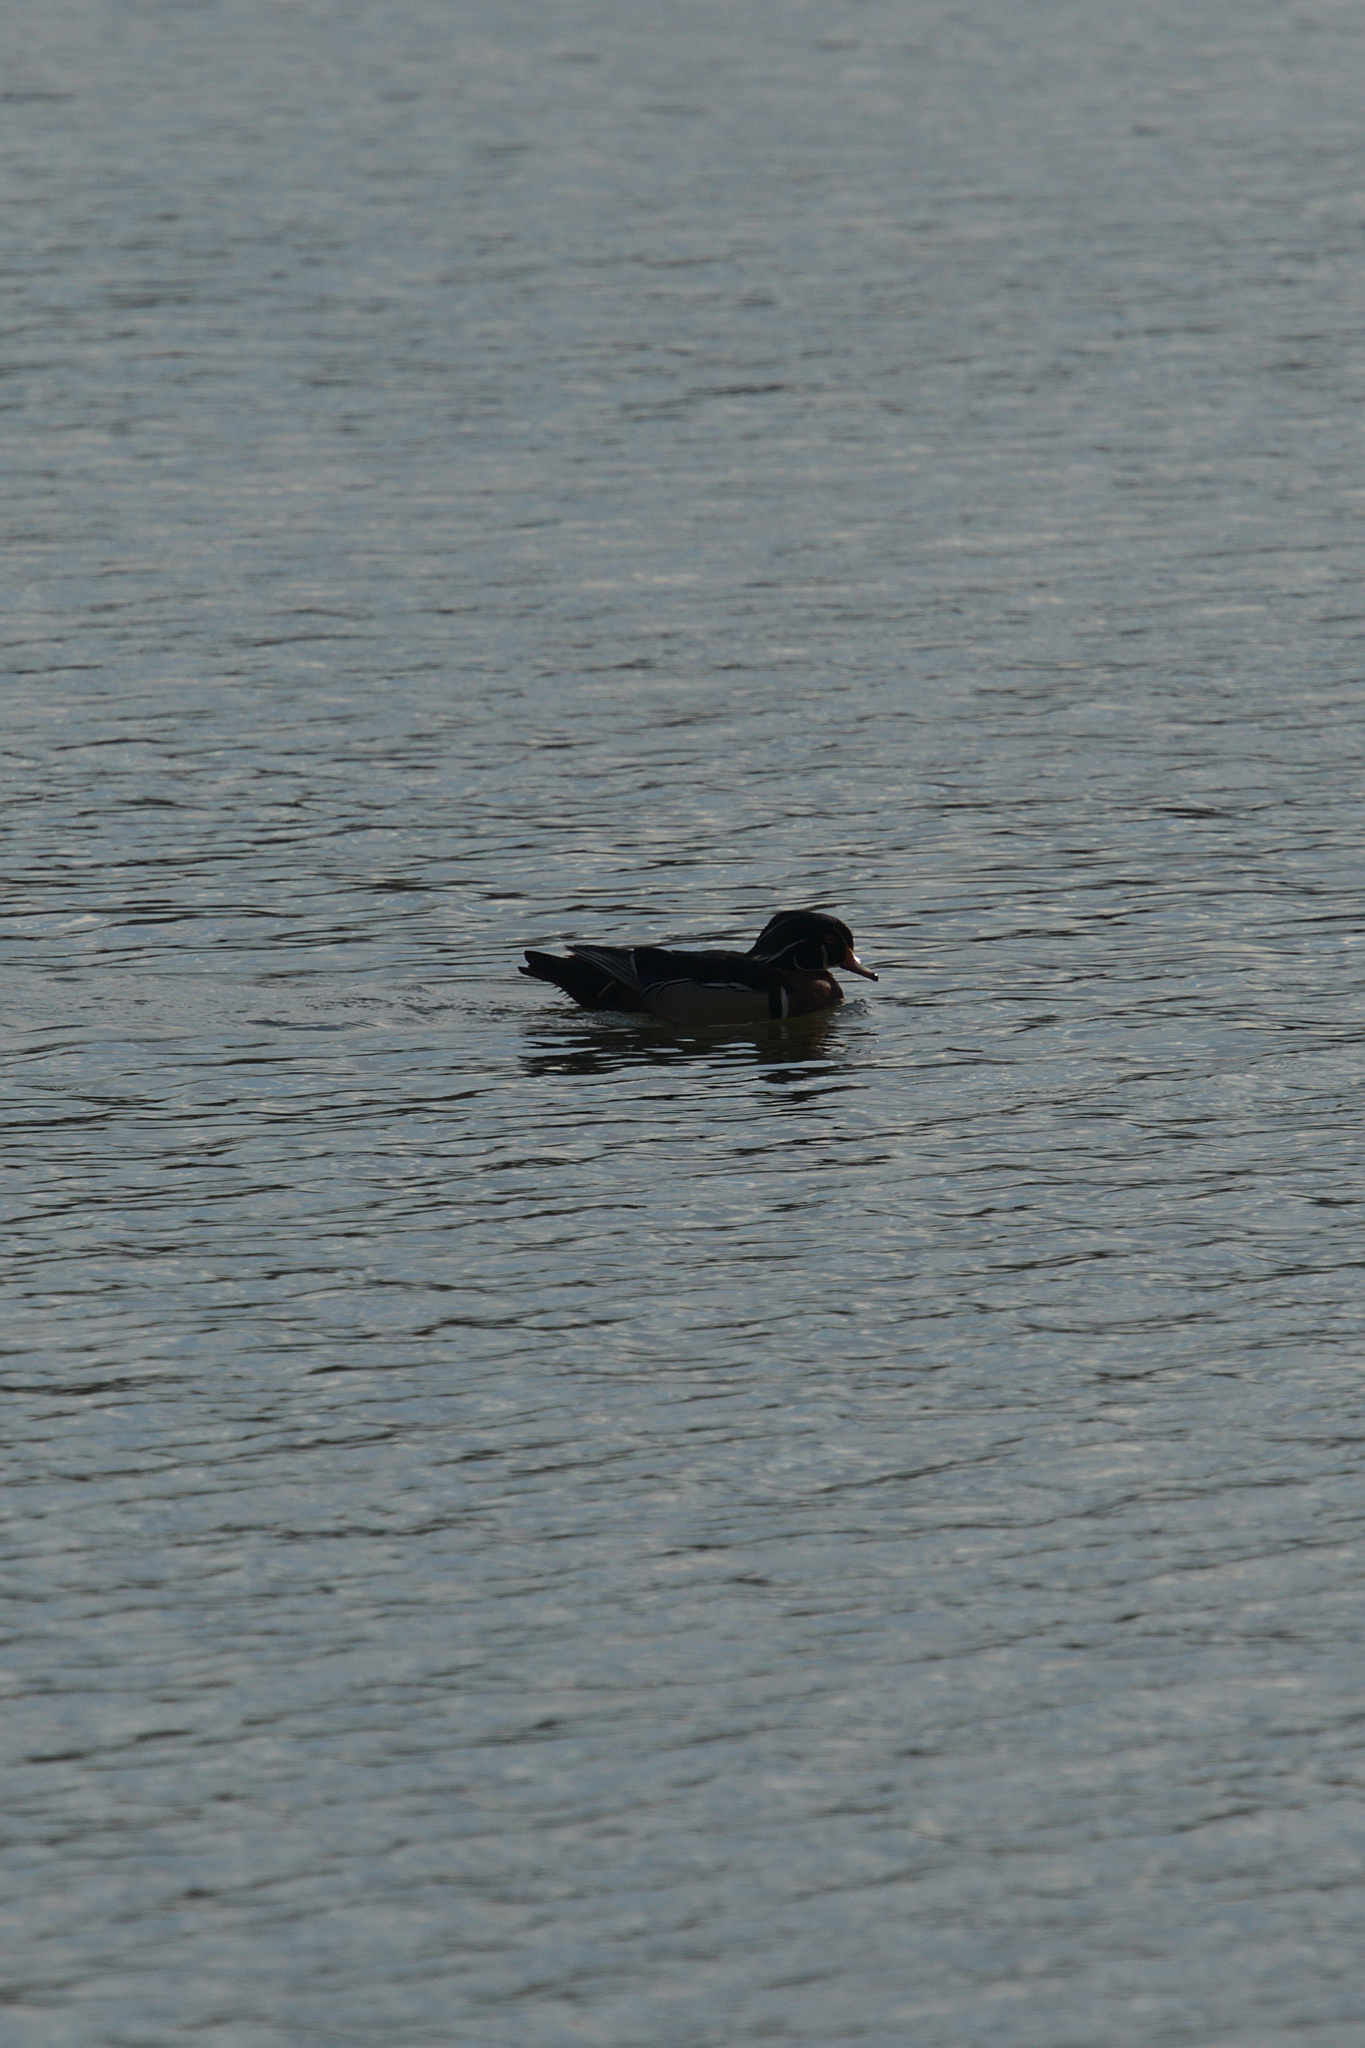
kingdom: Animalia
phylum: Chordata
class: Aves
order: Anseriformes
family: Anatidae
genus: Aix
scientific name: Aix sponsa
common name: Wood duck
